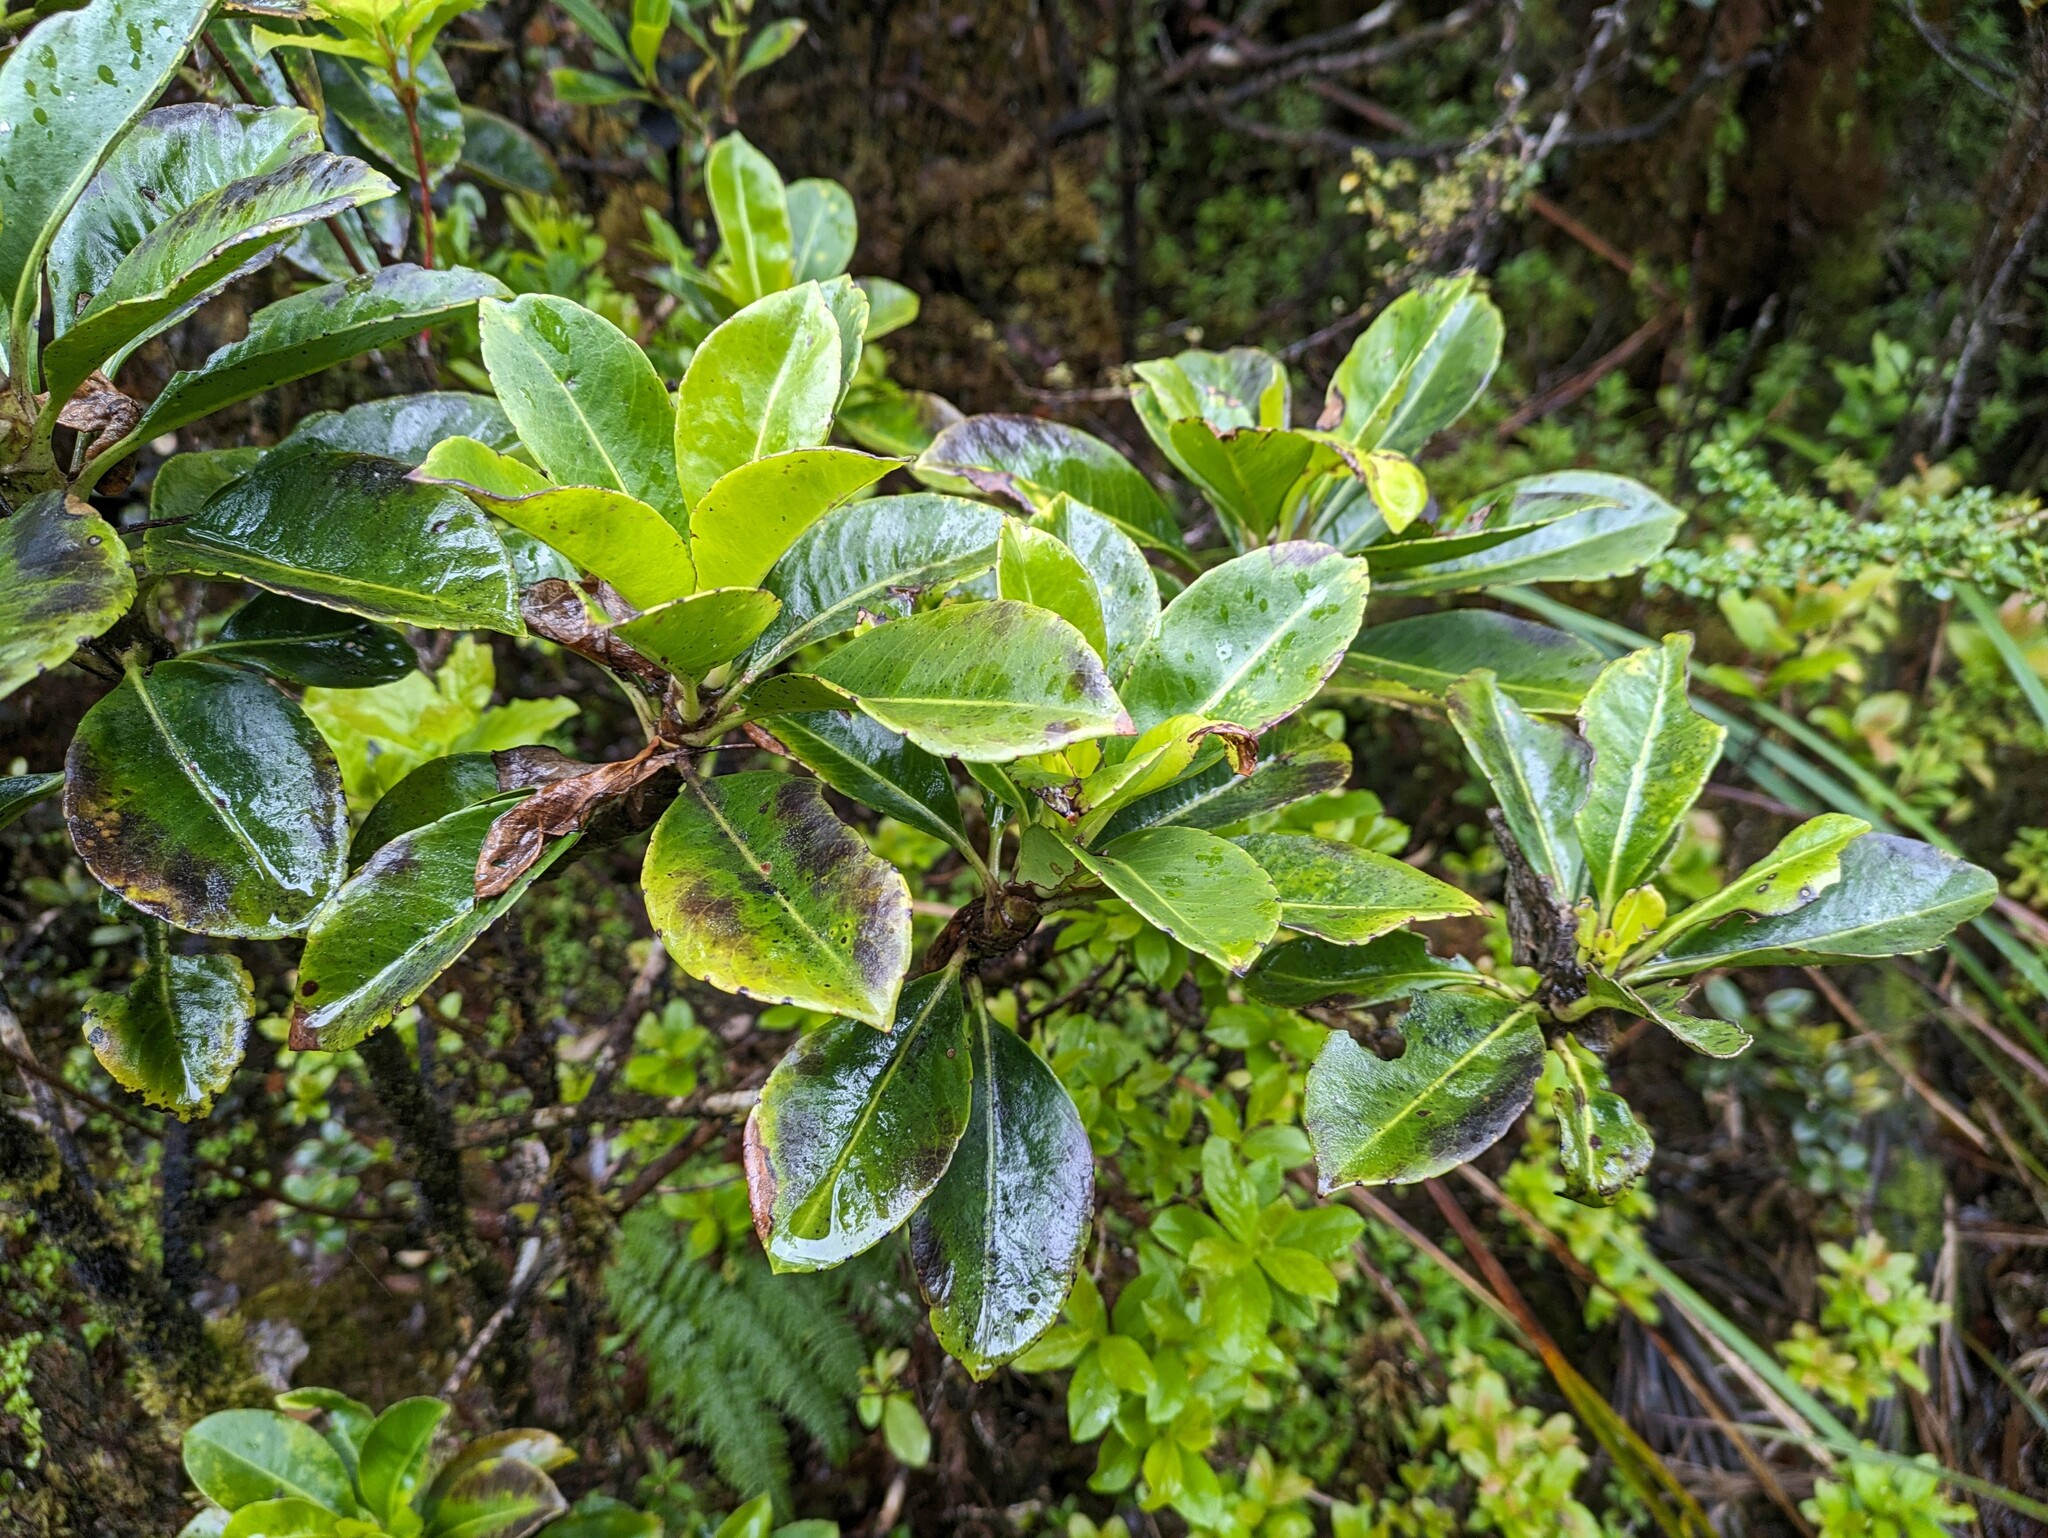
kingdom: Plantae
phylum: Tracheophyta
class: Magnoliopsida
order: Asterales
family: Goodeniaceae
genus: Scaevola
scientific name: Scaevola glabra
